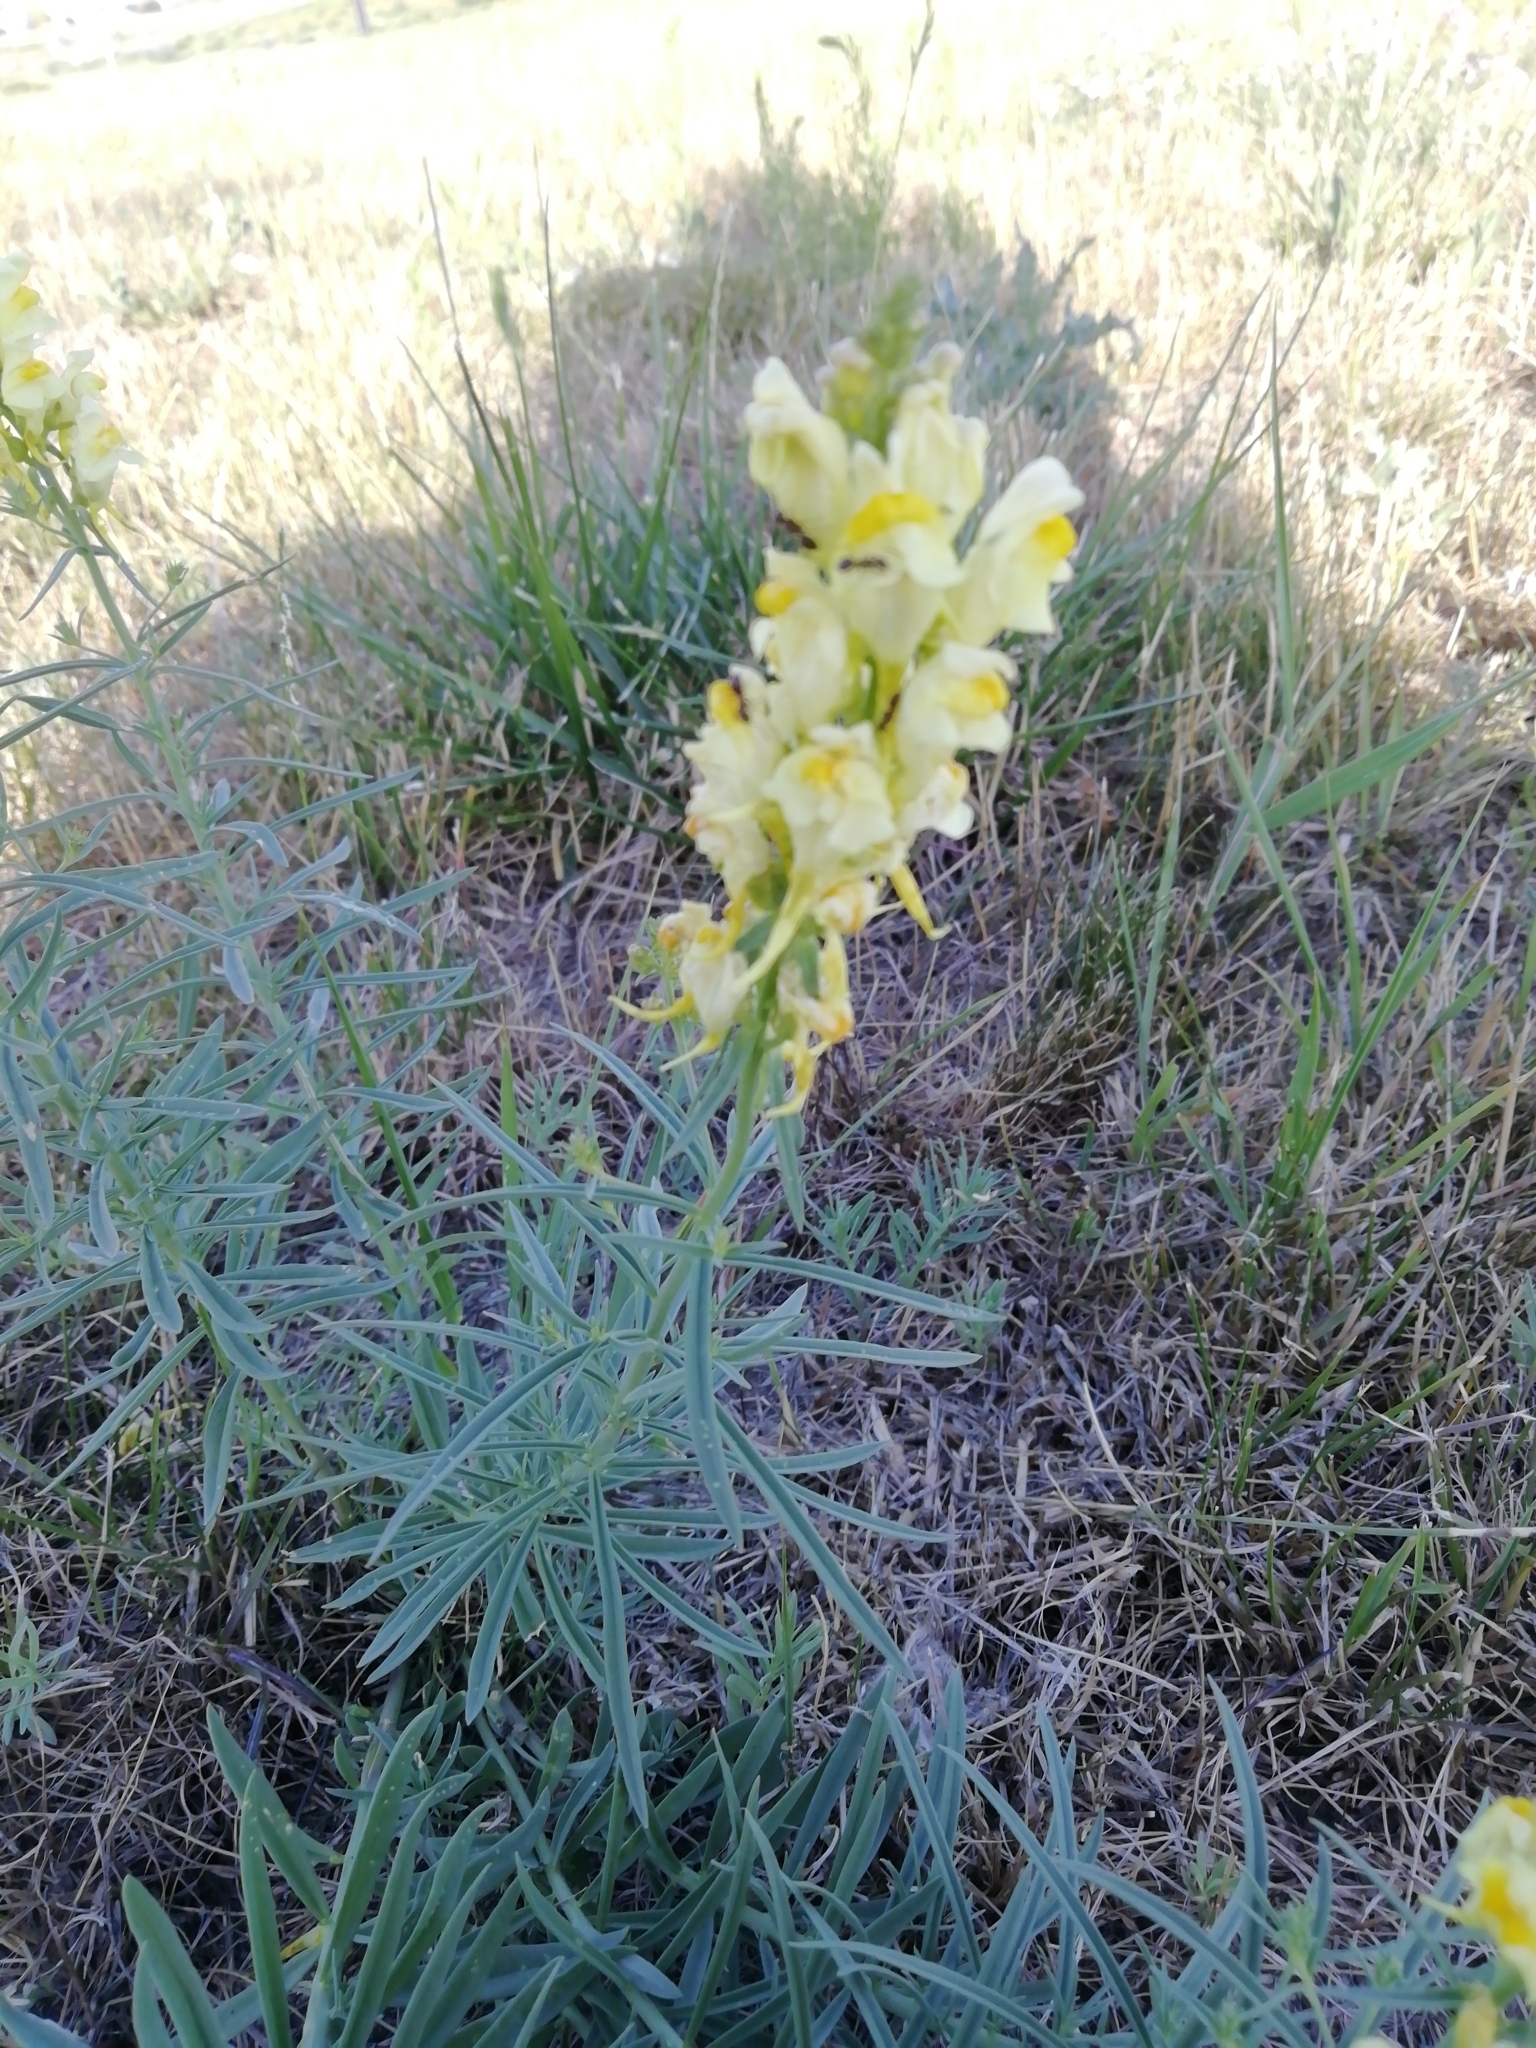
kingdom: Plantae
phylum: Tracheophyta
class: Magnoliopsida
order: Lamiales
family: Plantaginaceae
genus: Linaria
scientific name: Linaria vulgaris
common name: Butter and eggs
